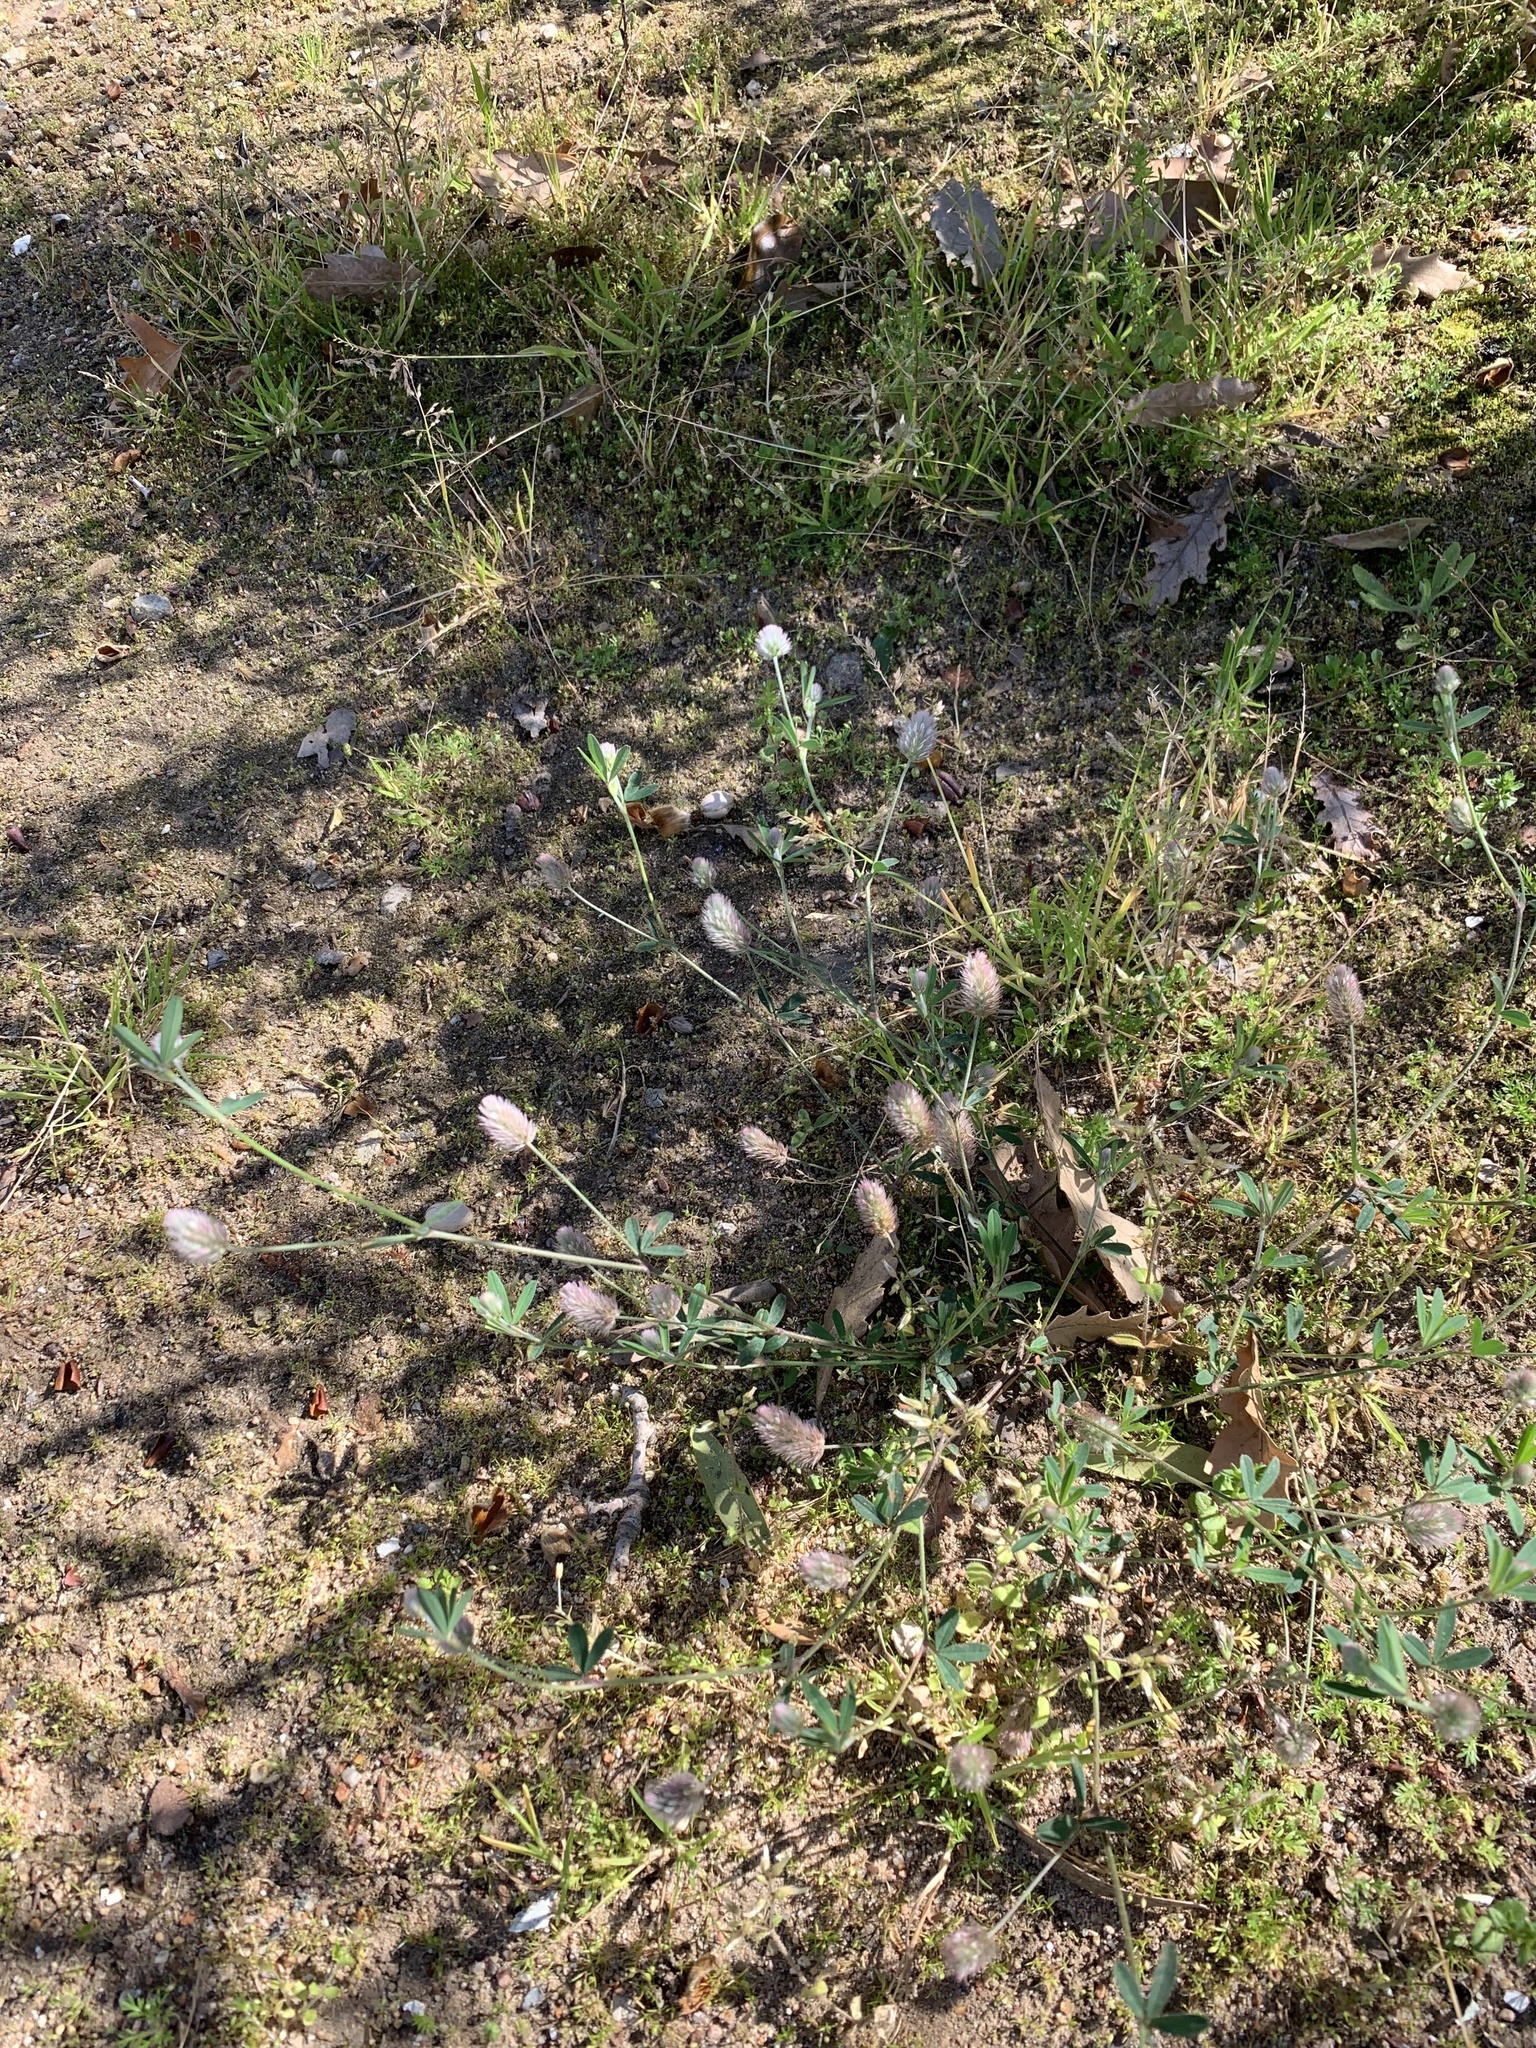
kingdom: Plantae
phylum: Tracheophyta
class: Magnoliopsida
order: Fabales
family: Fabaceae
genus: Trifolium
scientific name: Trifolium arvense
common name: Hare's-foot clover
